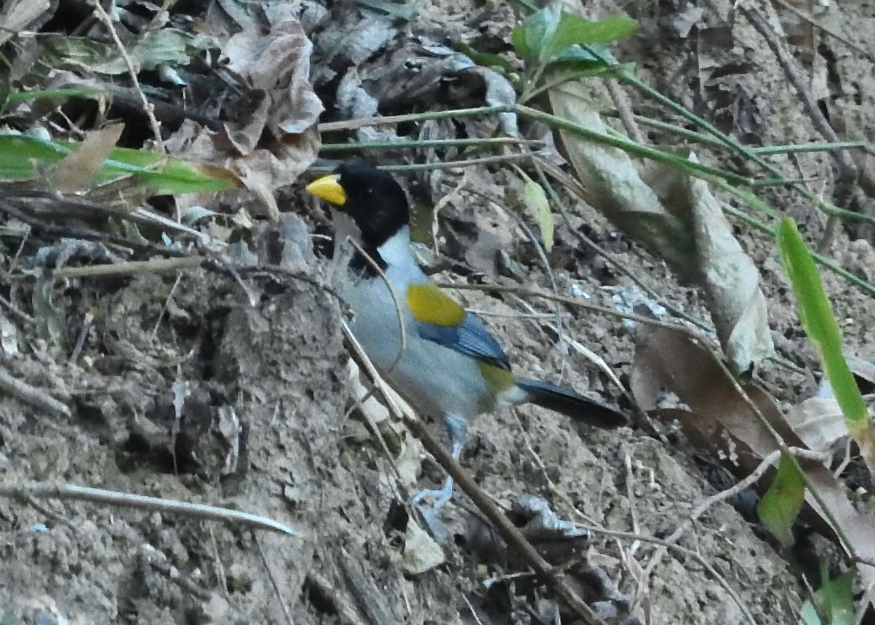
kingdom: Animalia
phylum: Chordata
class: Aves
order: Passeriformes
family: Passerellidae
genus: Arremon
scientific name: Arremon schlegeli
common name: Golden-winged sparrow
